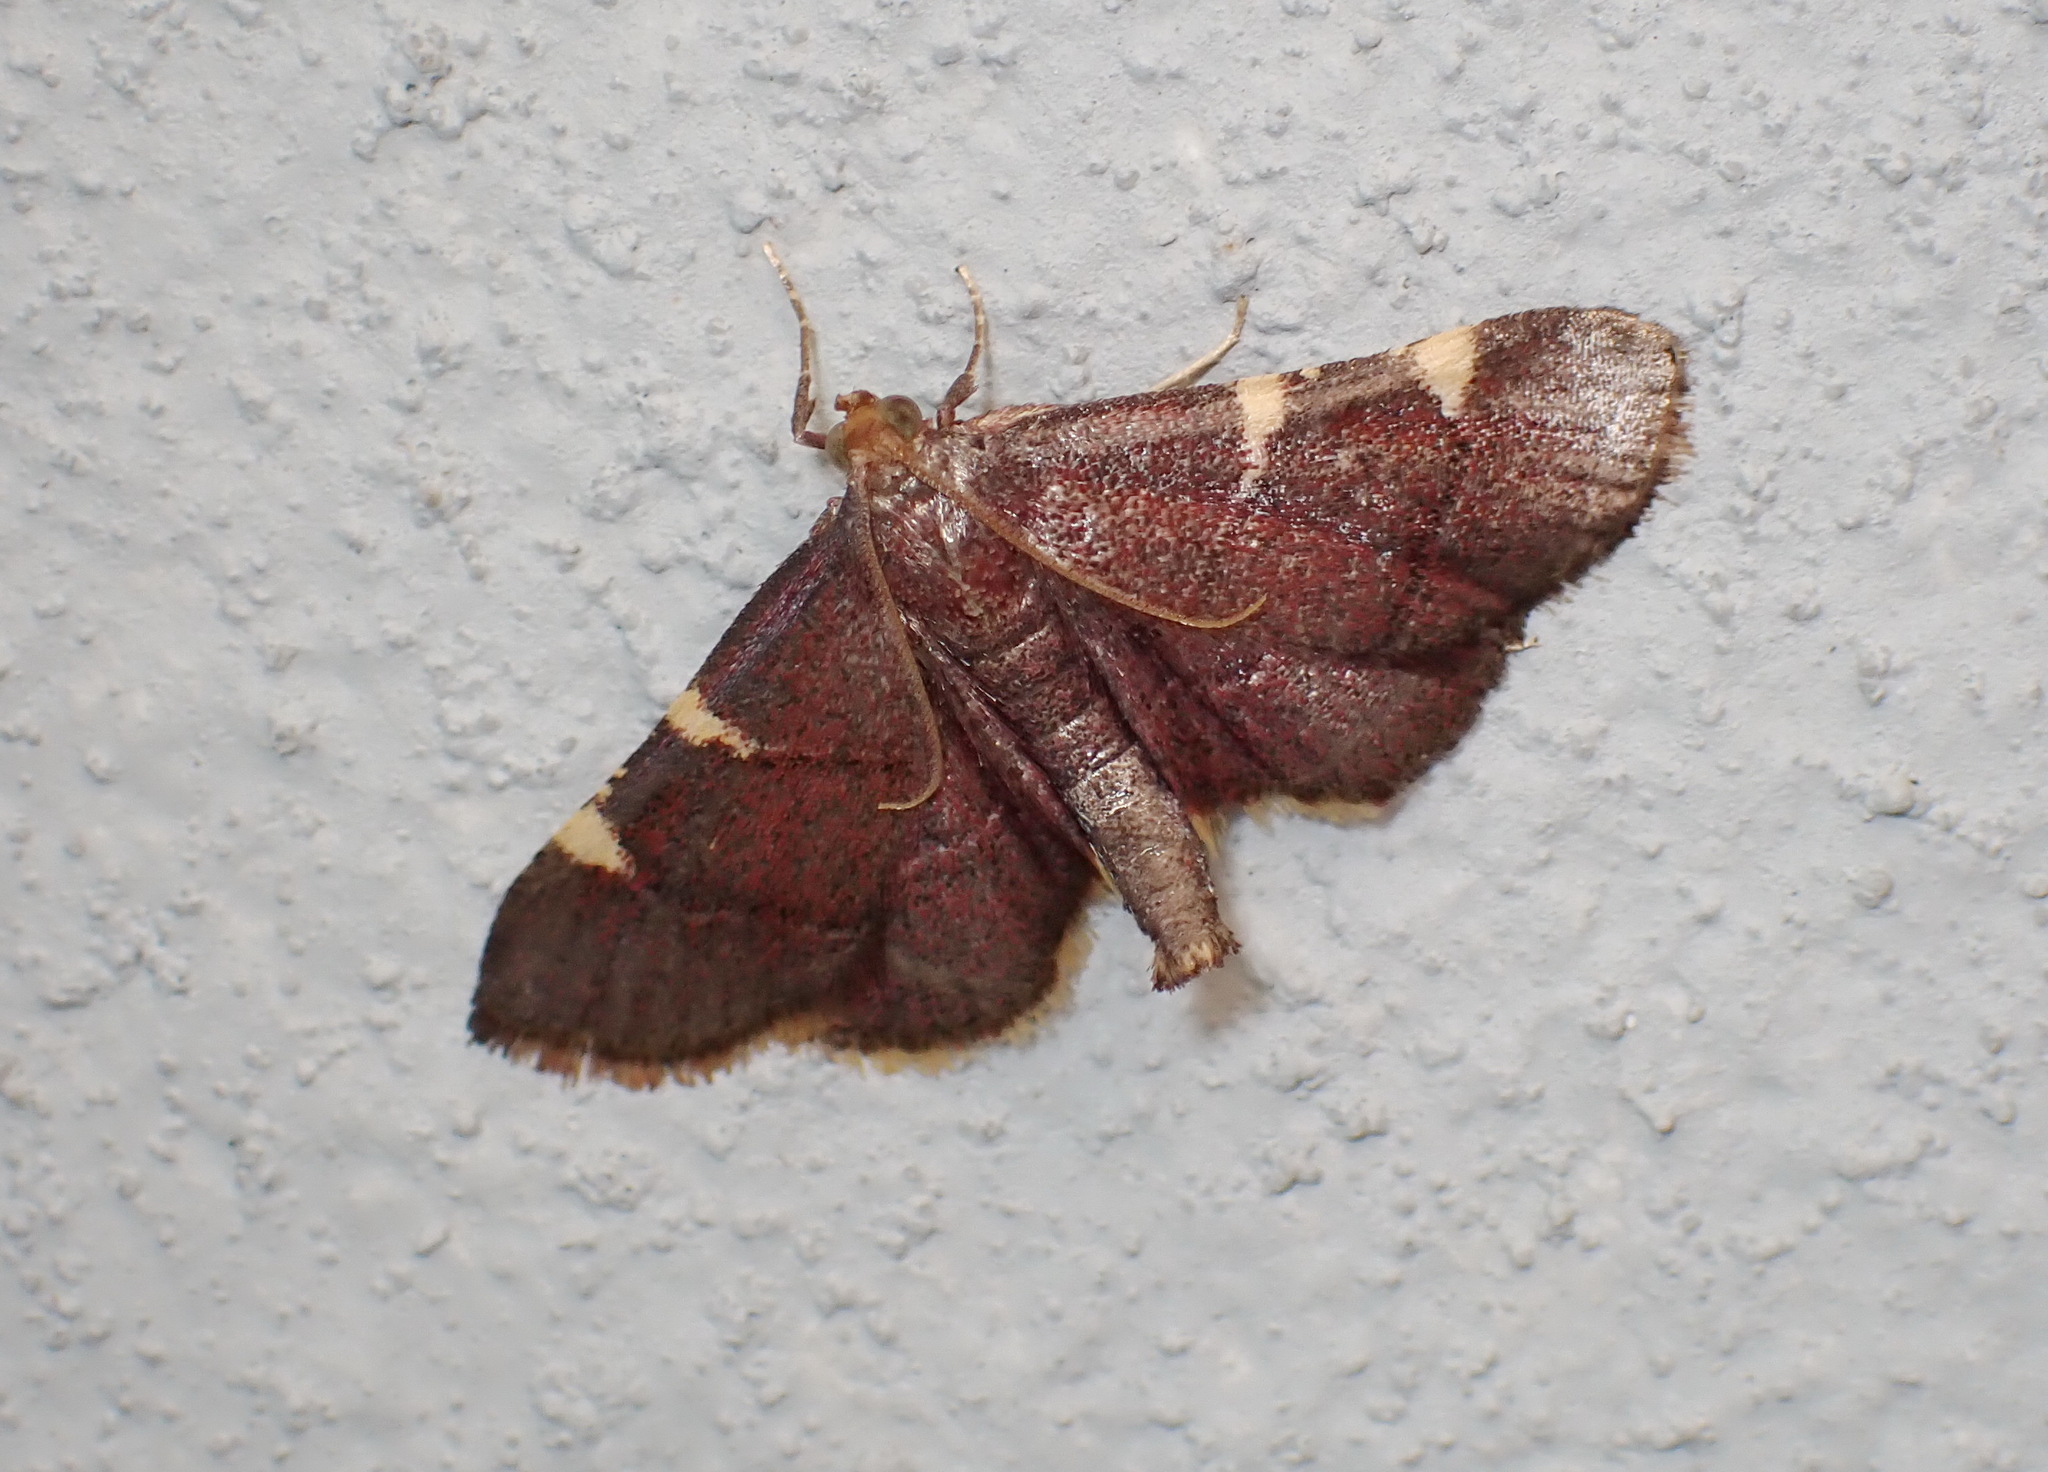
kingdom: Animalia
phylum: Arthropoda
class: Insecta
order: Lepidoptera
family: Pyralidae
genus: Hypsopygia
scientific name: Hypsopygia olinalis
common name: Yellow-fringed dolichomia moth
